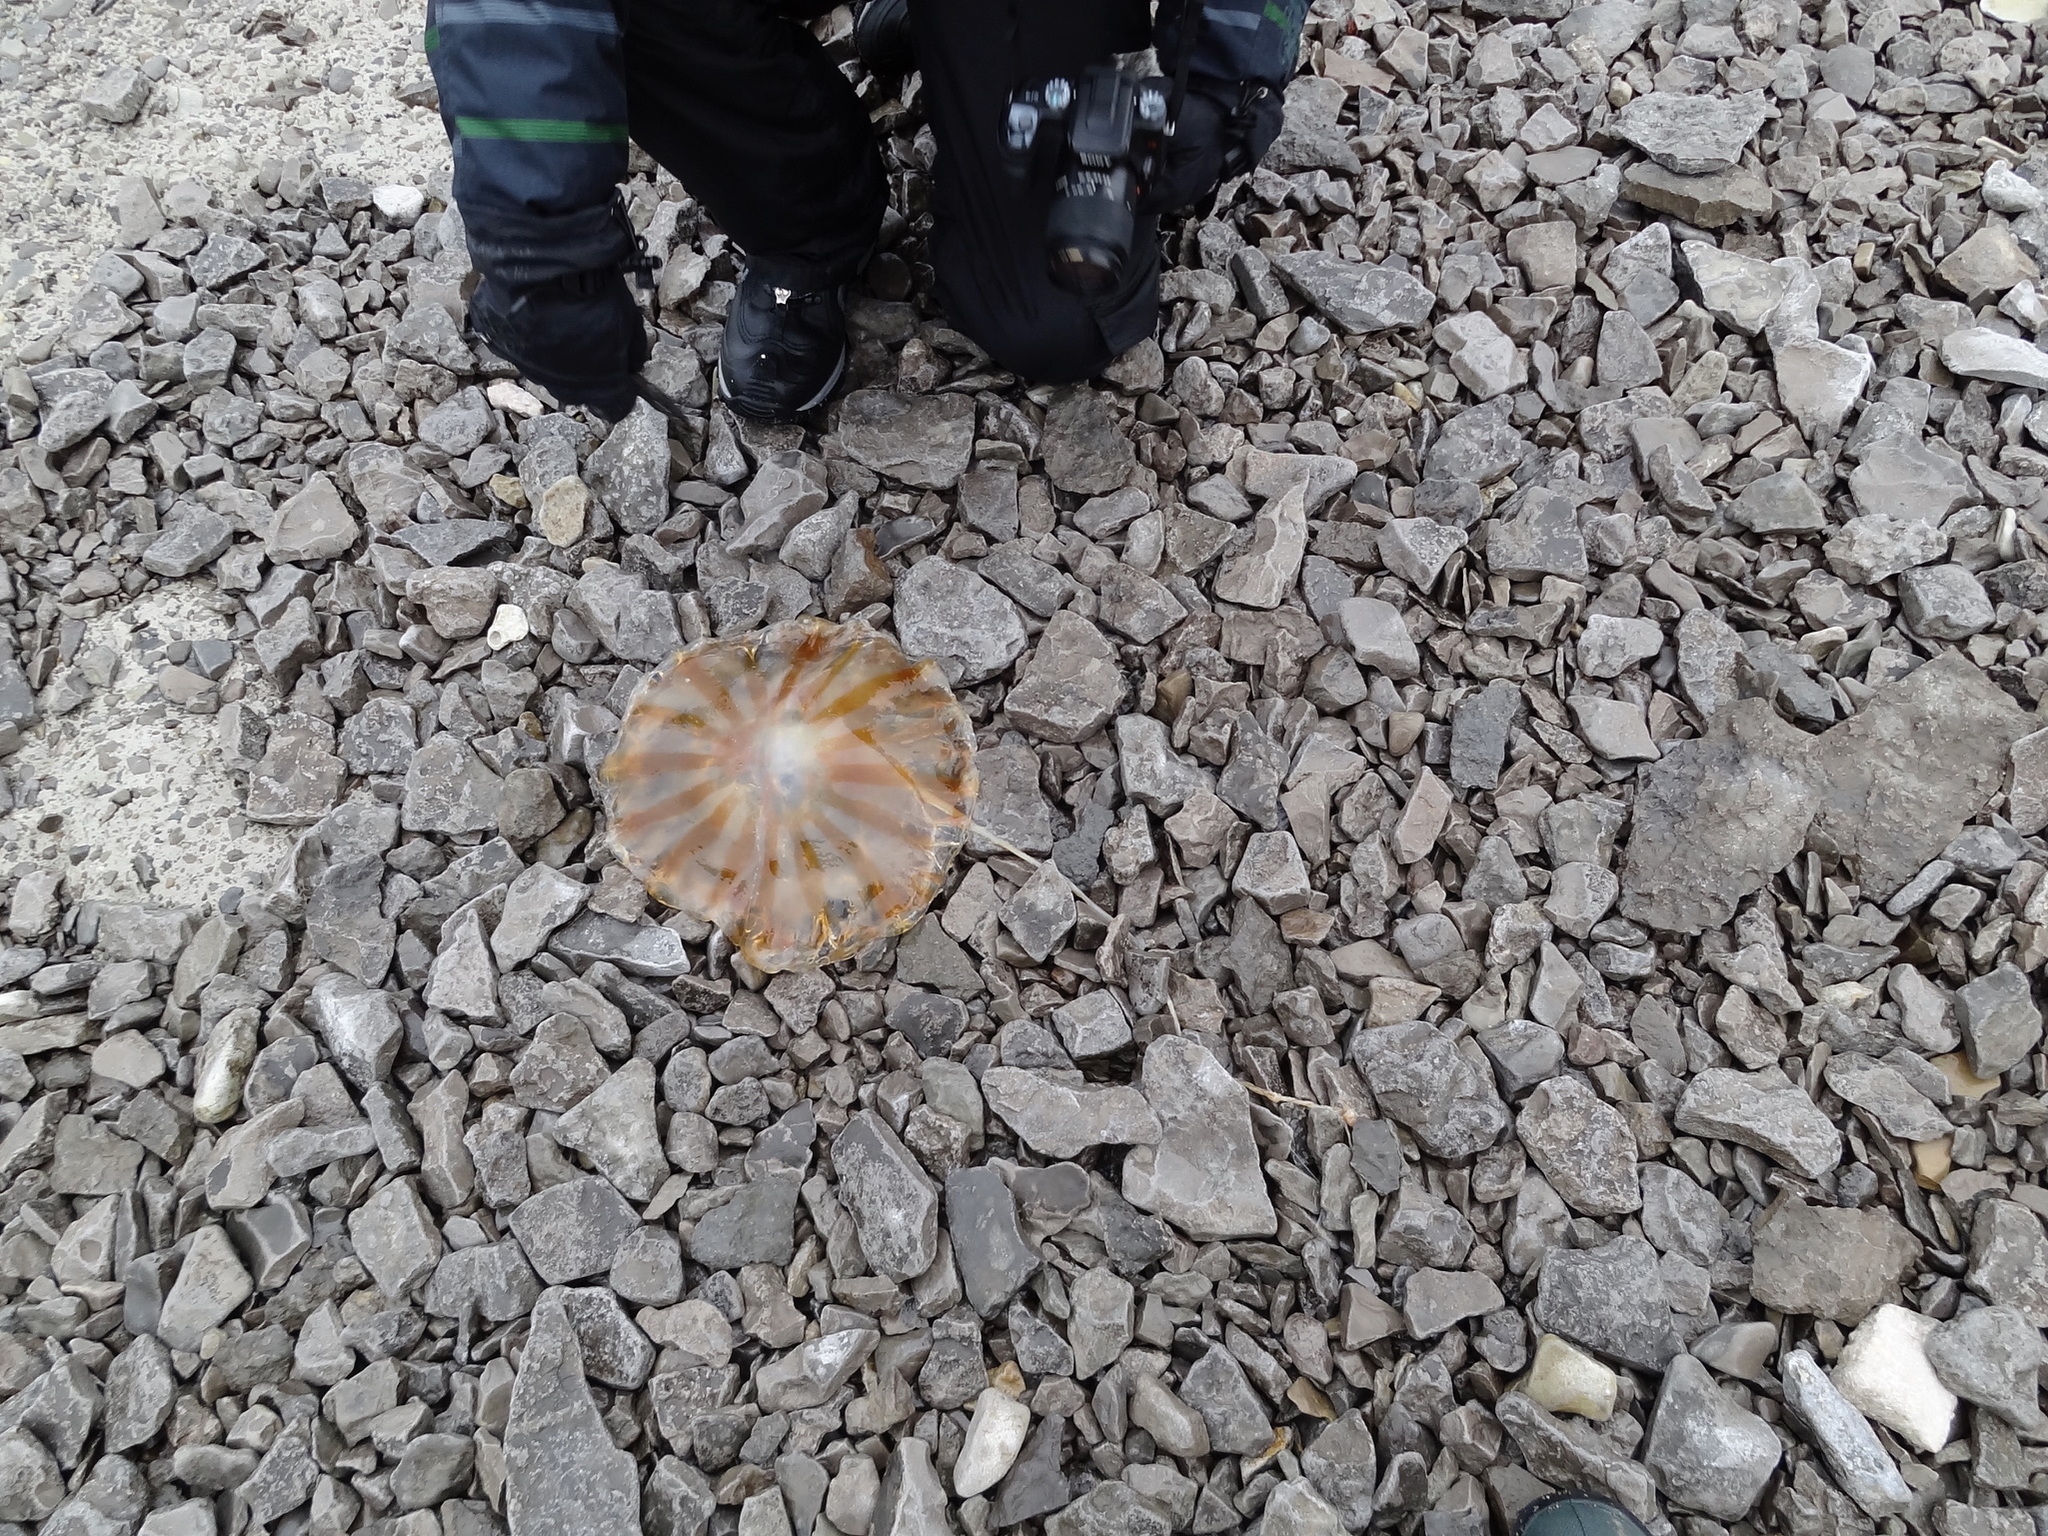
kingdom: Animalia
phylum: Cnidaria
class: Scyphozoa
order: Semaeostomeae
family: Pelagiidae
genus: Chrysaora
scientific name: Chrysaora melanaster
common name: Northern sea nettle
